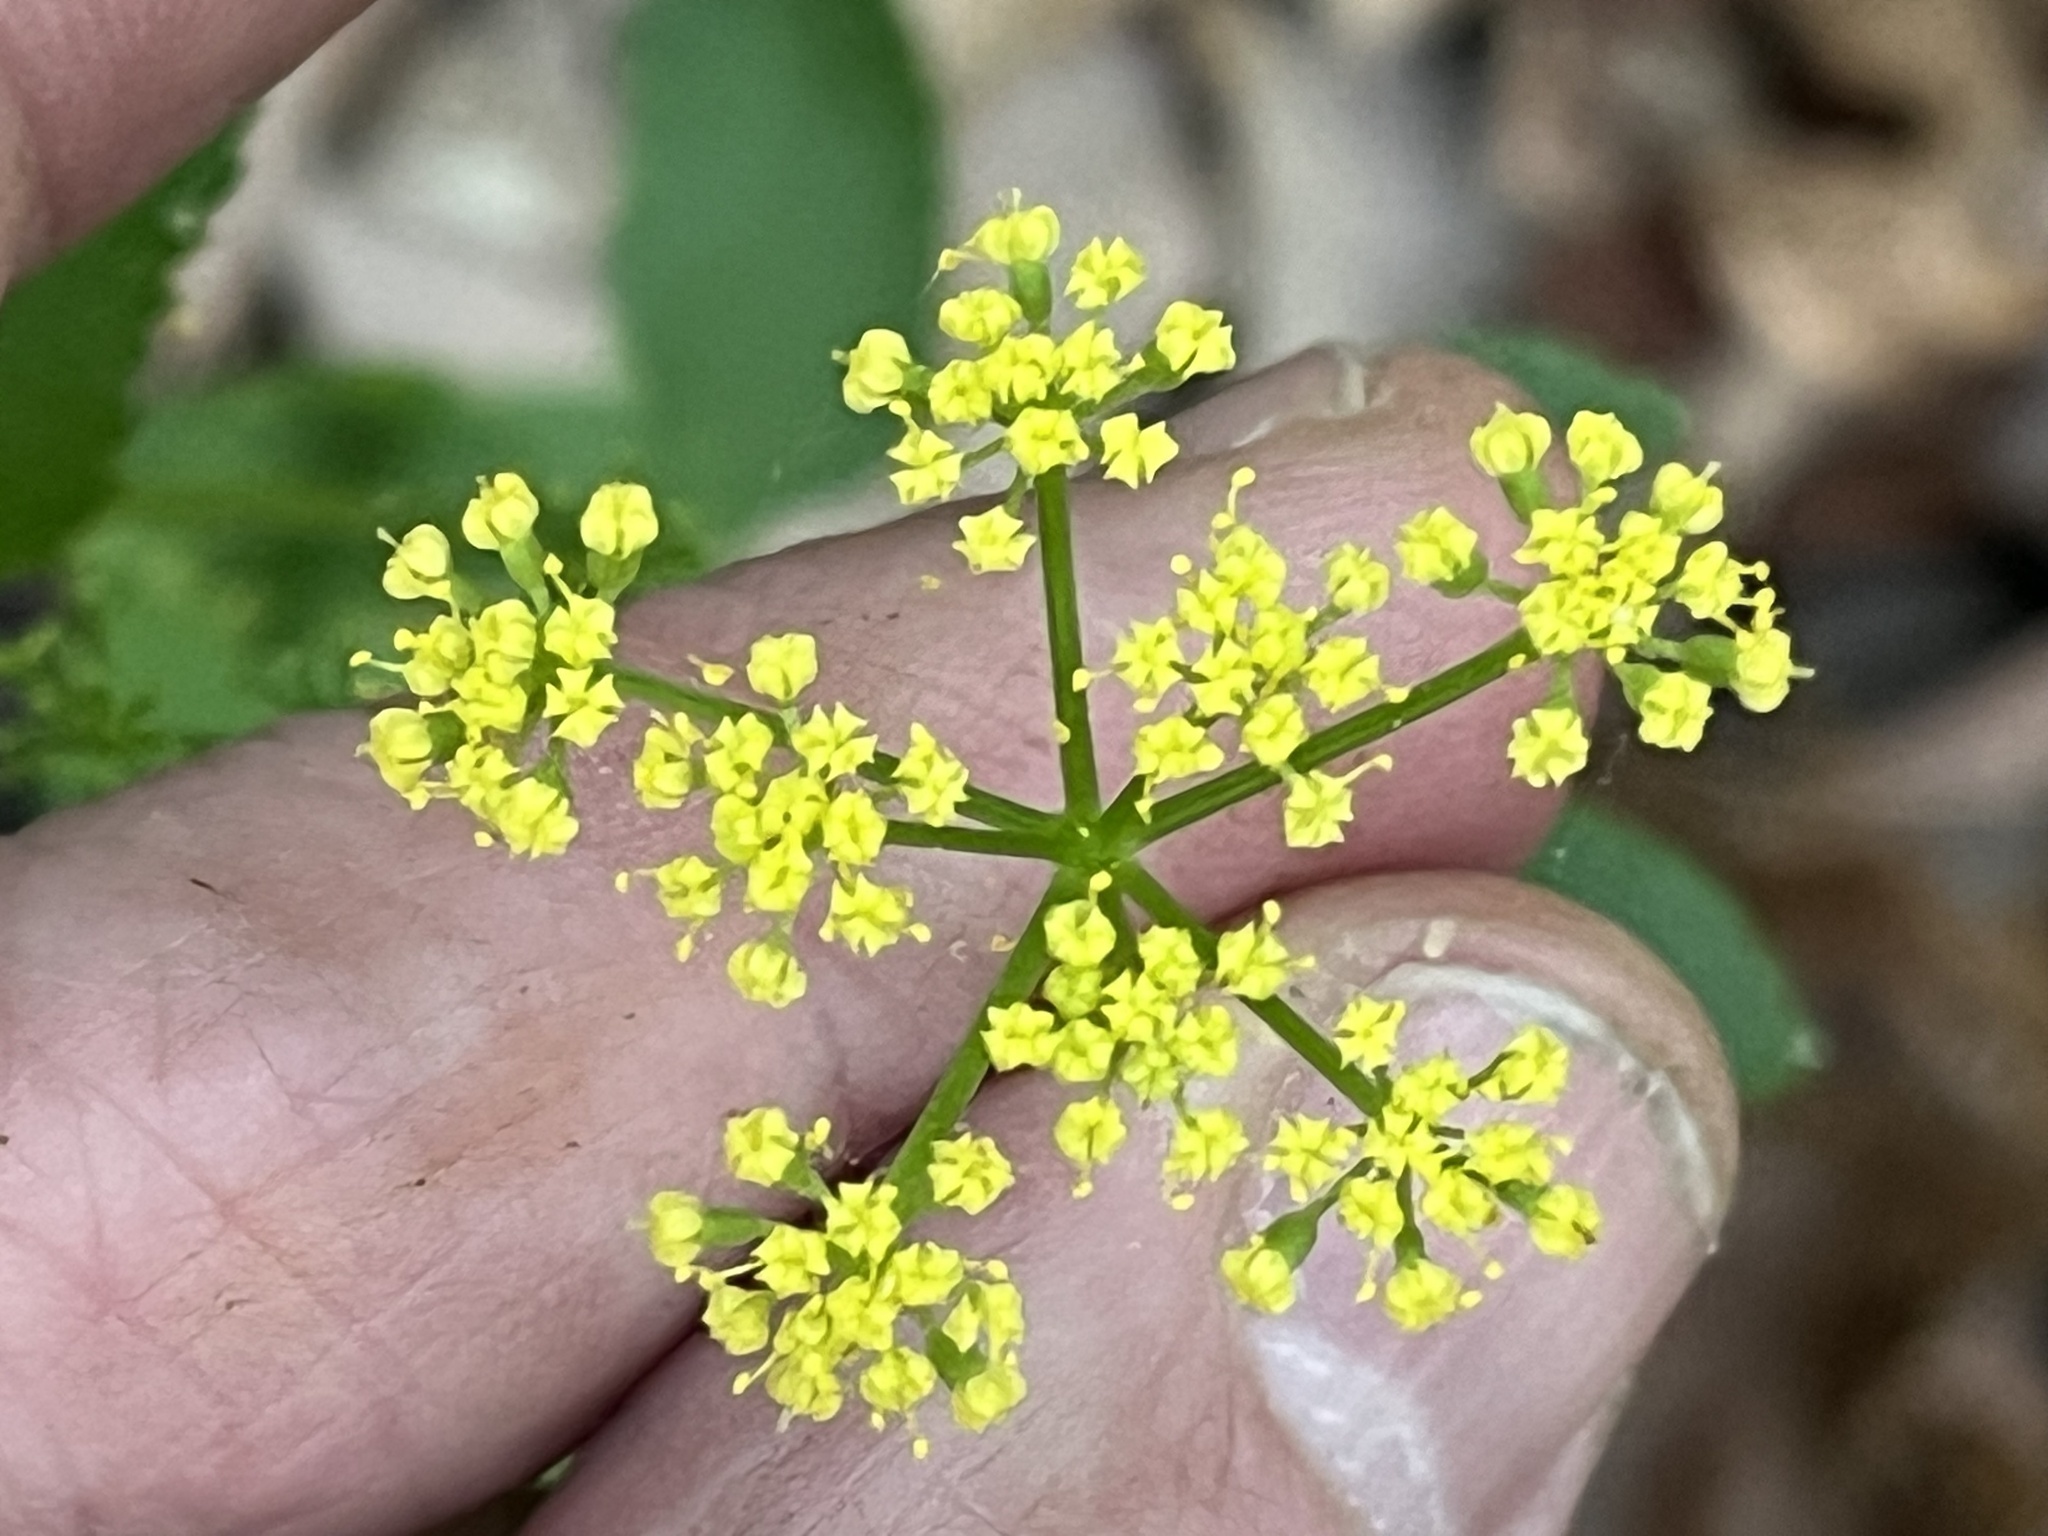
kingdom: Plantae
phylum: Tracheophyta
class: Magnoliopsida
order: Apiales
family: Apiaceae
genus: Thaspium
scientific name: Thaspium trifoliatum
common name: Purple meadow-parsnip
